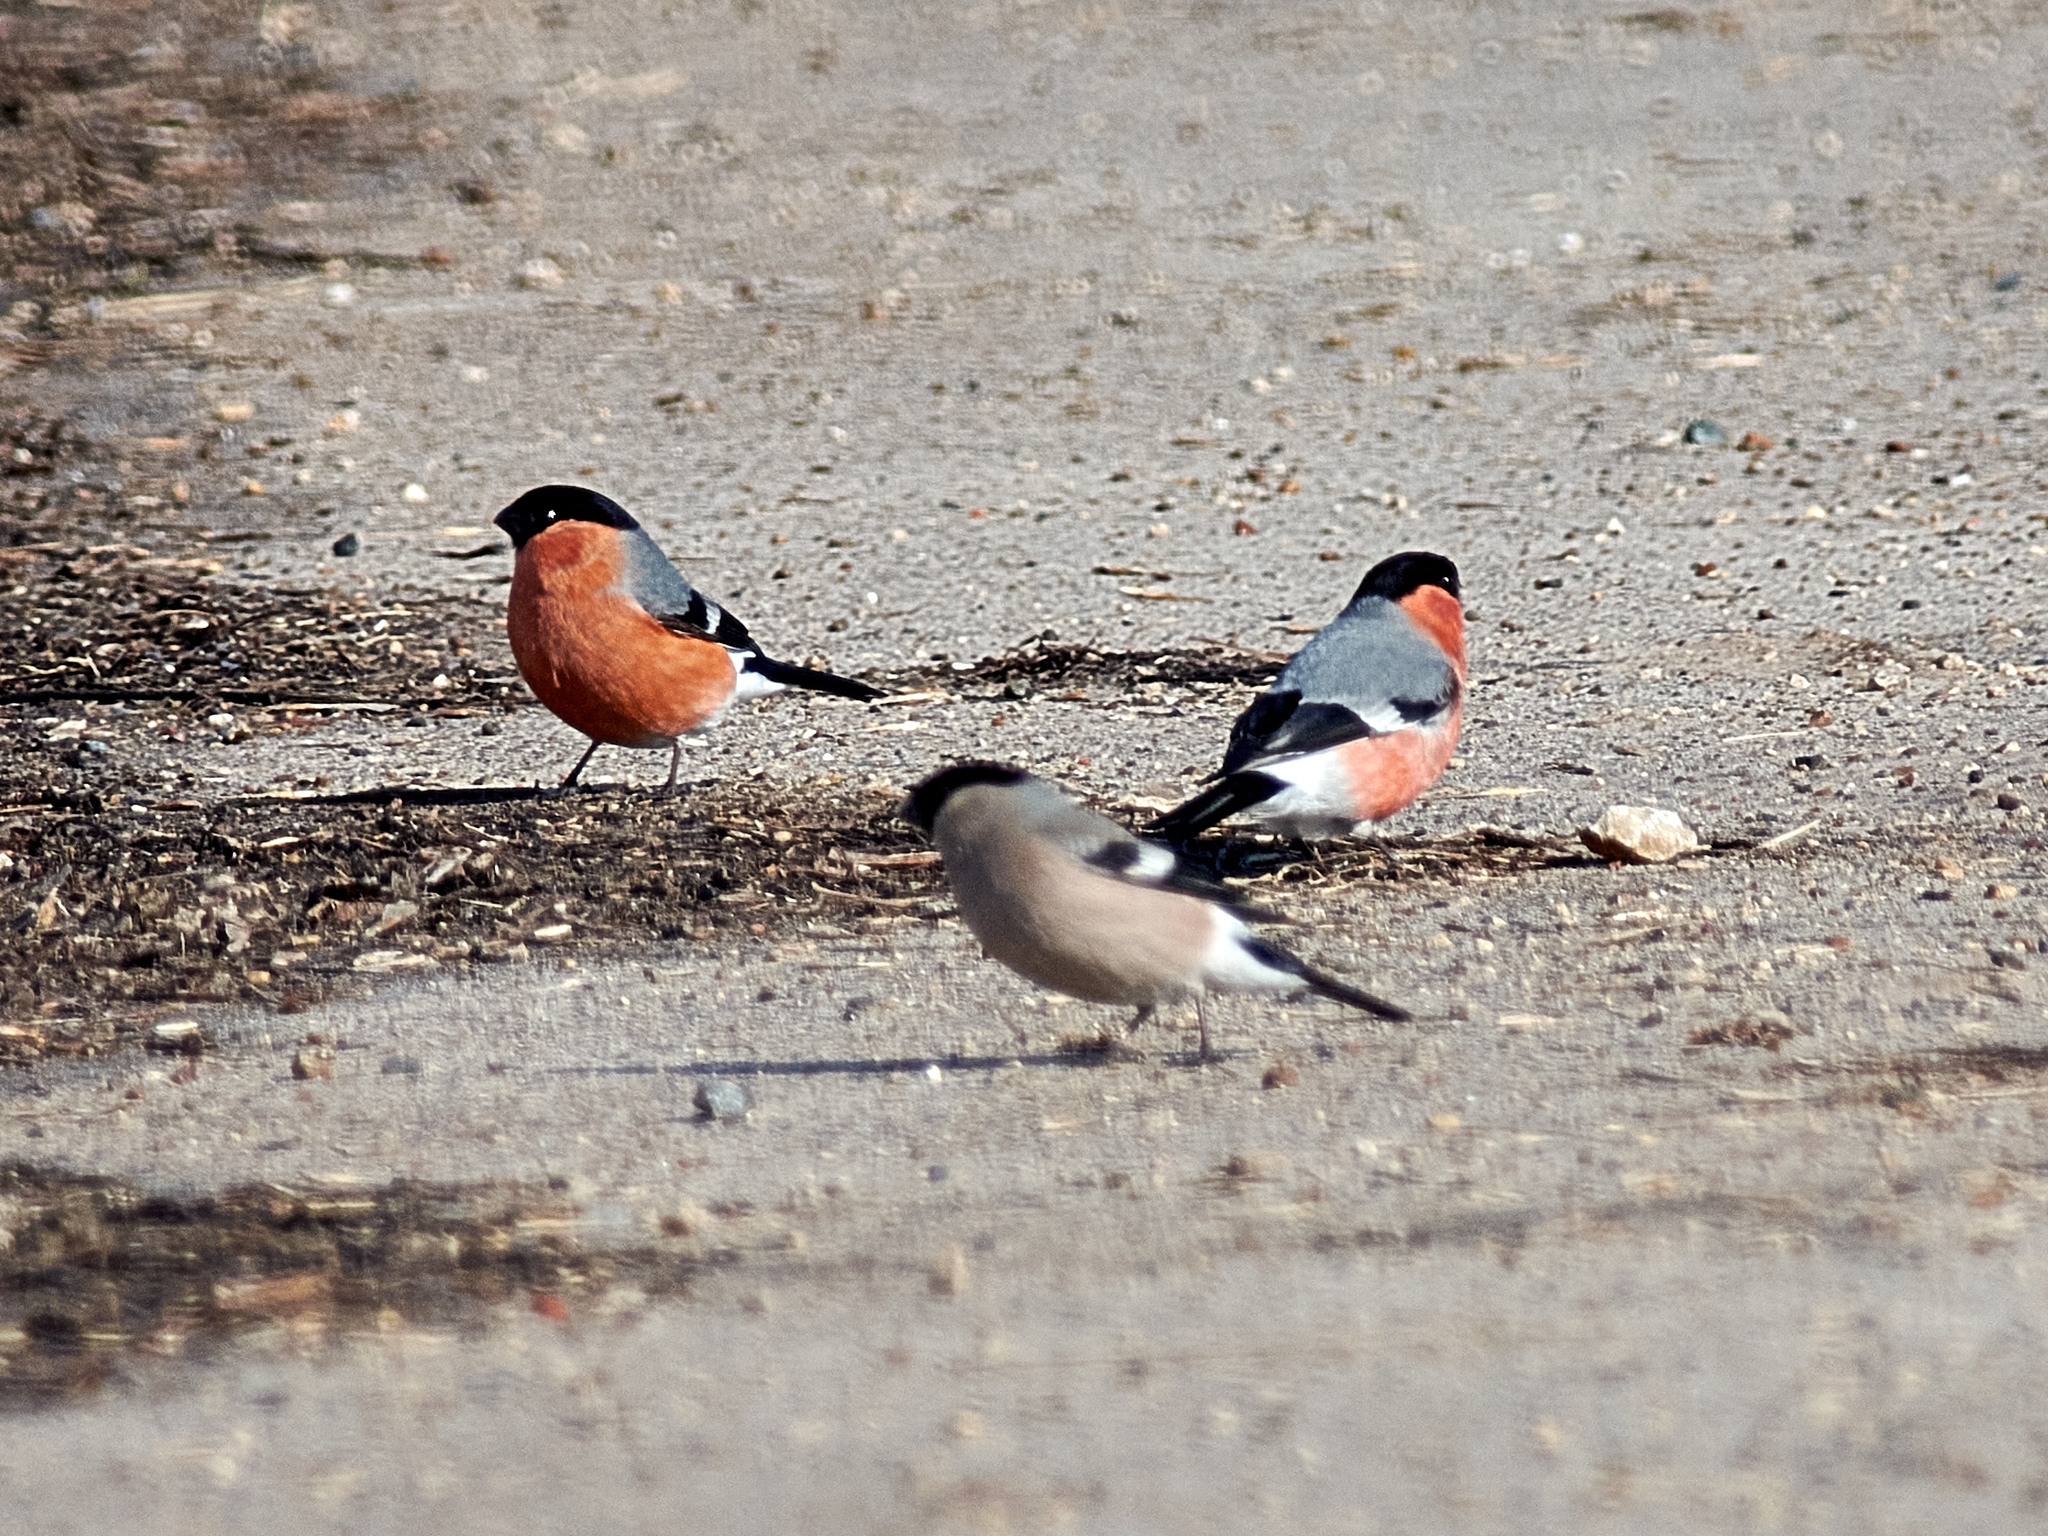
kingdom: Animalia
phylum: Chordata
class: Aves
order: Passeriformes
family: Fringillidae
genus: Pyrrhula
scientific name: Pyrrhula pyrrhula
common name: Eurasian bullfinch
